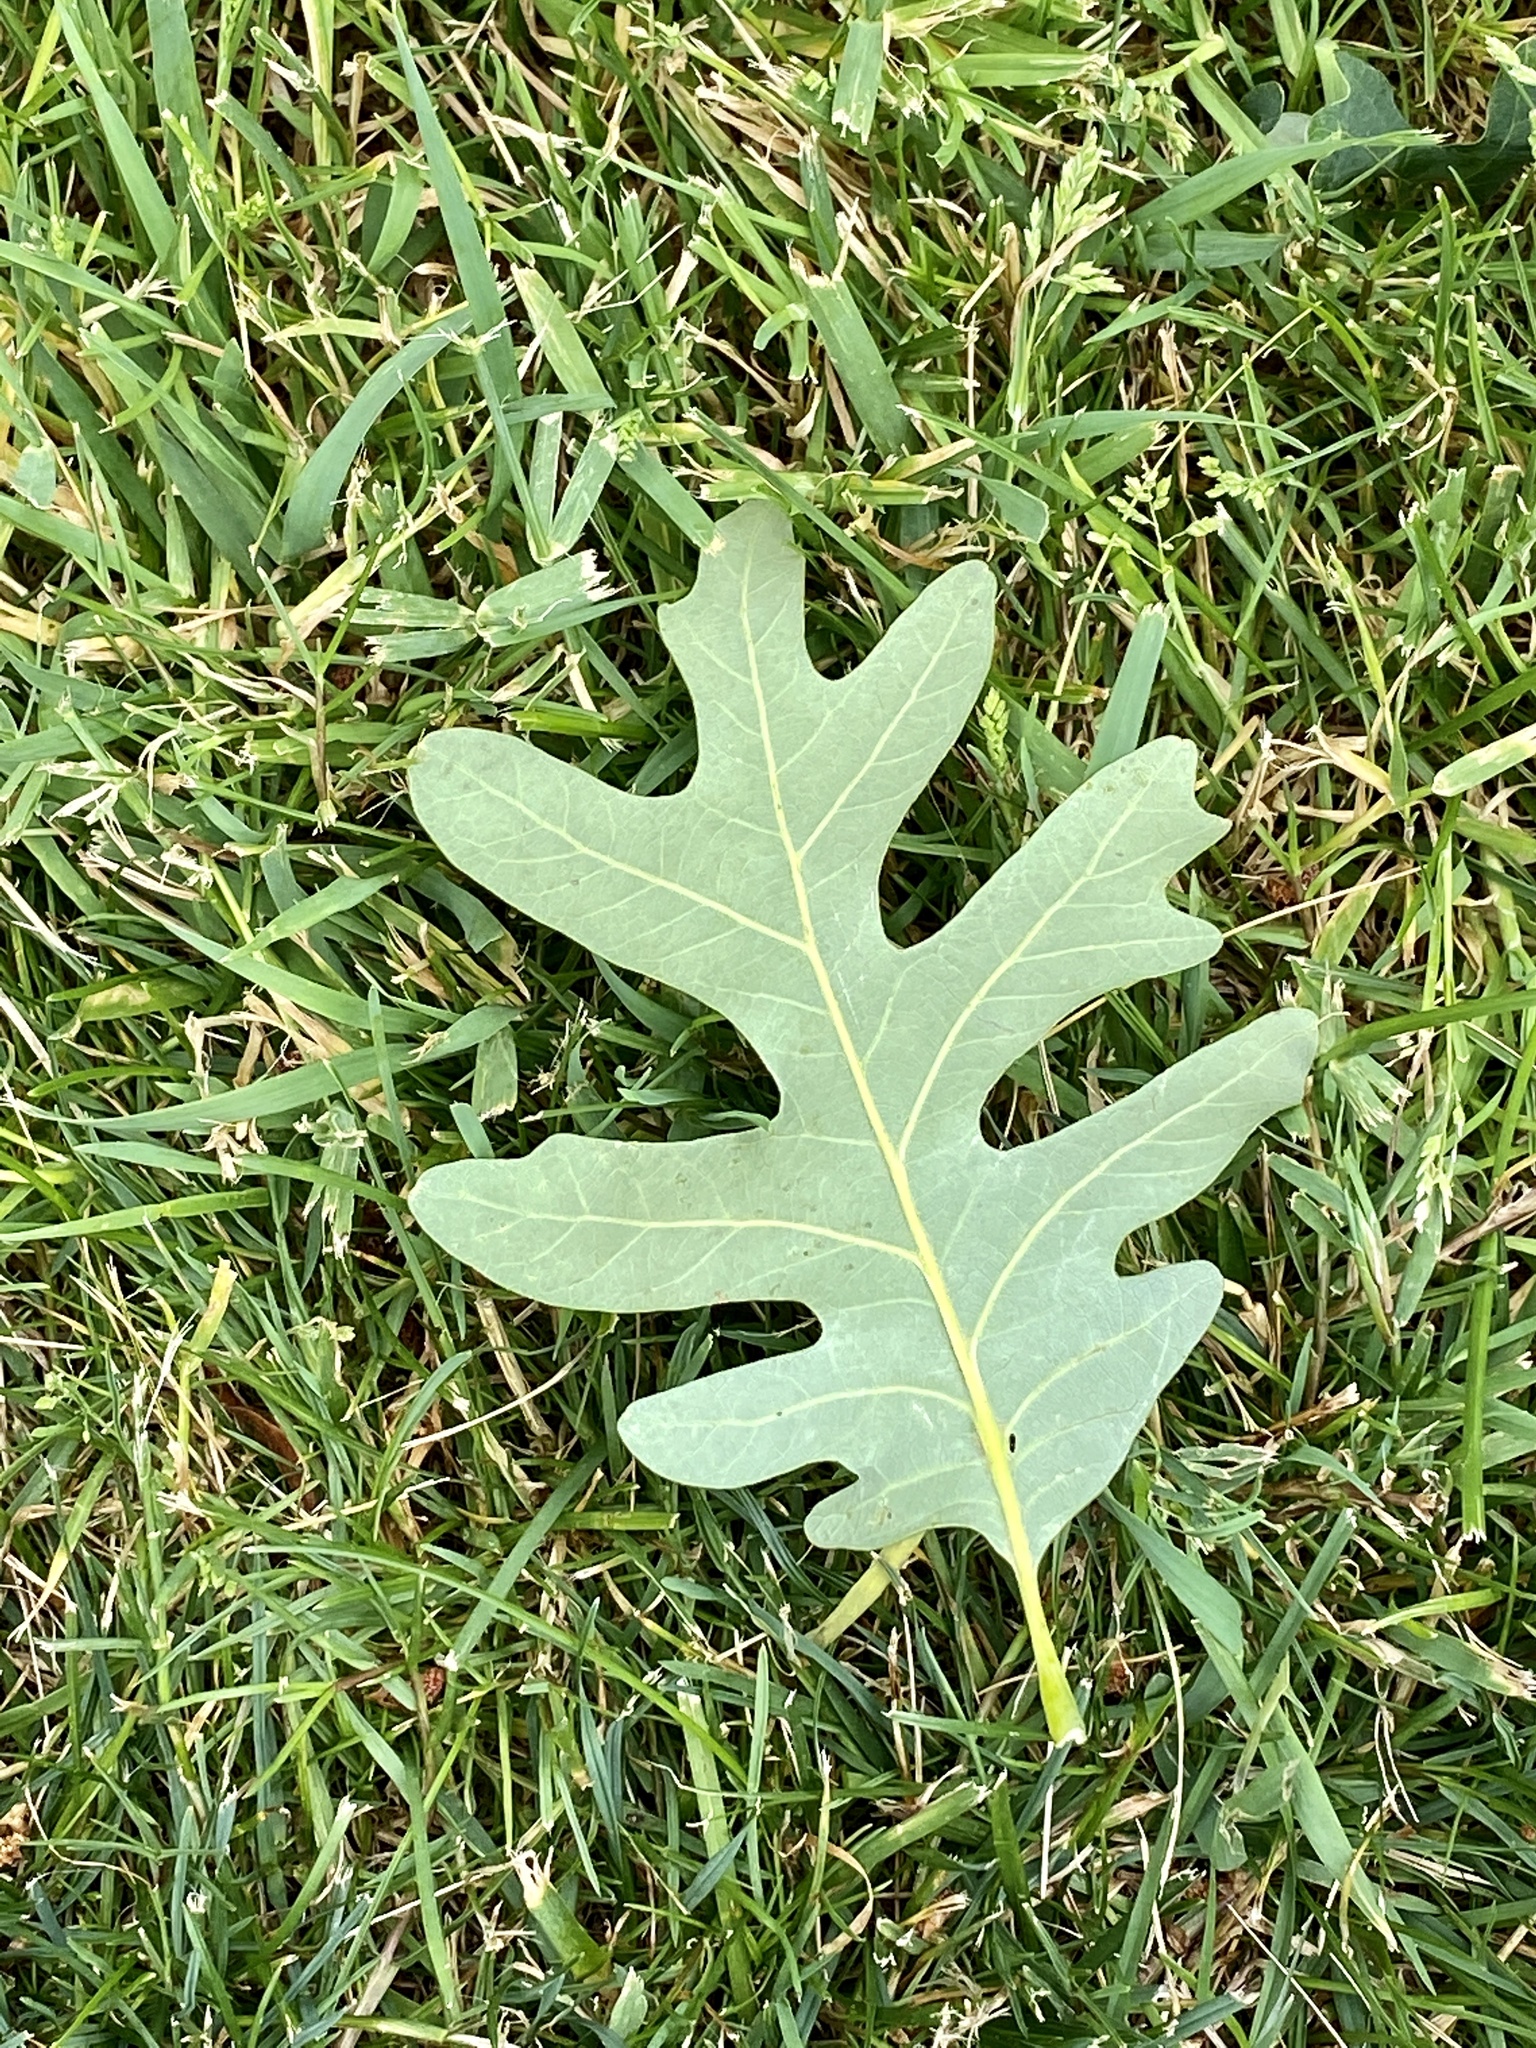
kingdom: Plantae
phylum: Tracheophyta
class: Magnoliopsida
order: Fagales
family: Fagaceae
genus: Quercus
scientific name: Quercus alba
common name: White oak
